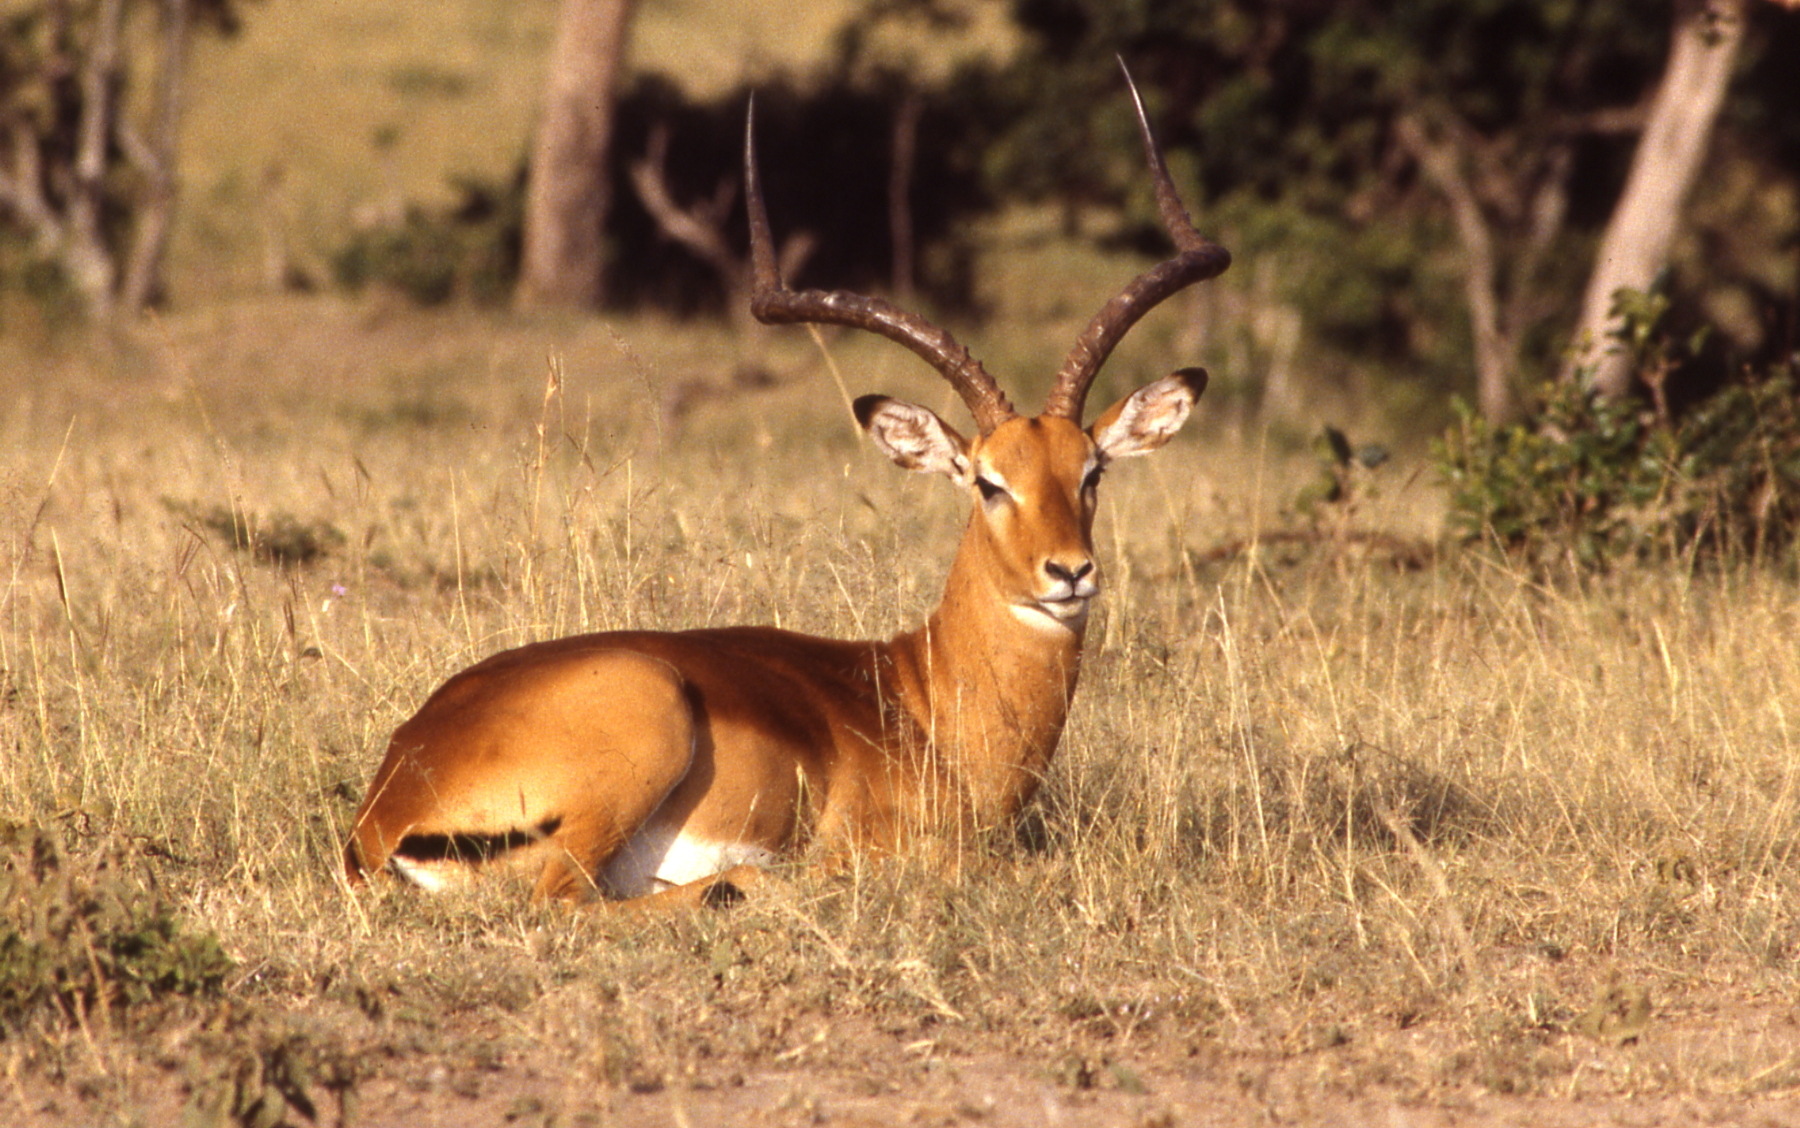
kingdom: Animalia
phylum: Chordata
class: Mammalia
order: Artiodactyla
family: Bovidae
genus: Aepyceros
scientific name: Aepyceros melampus
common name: Impala
